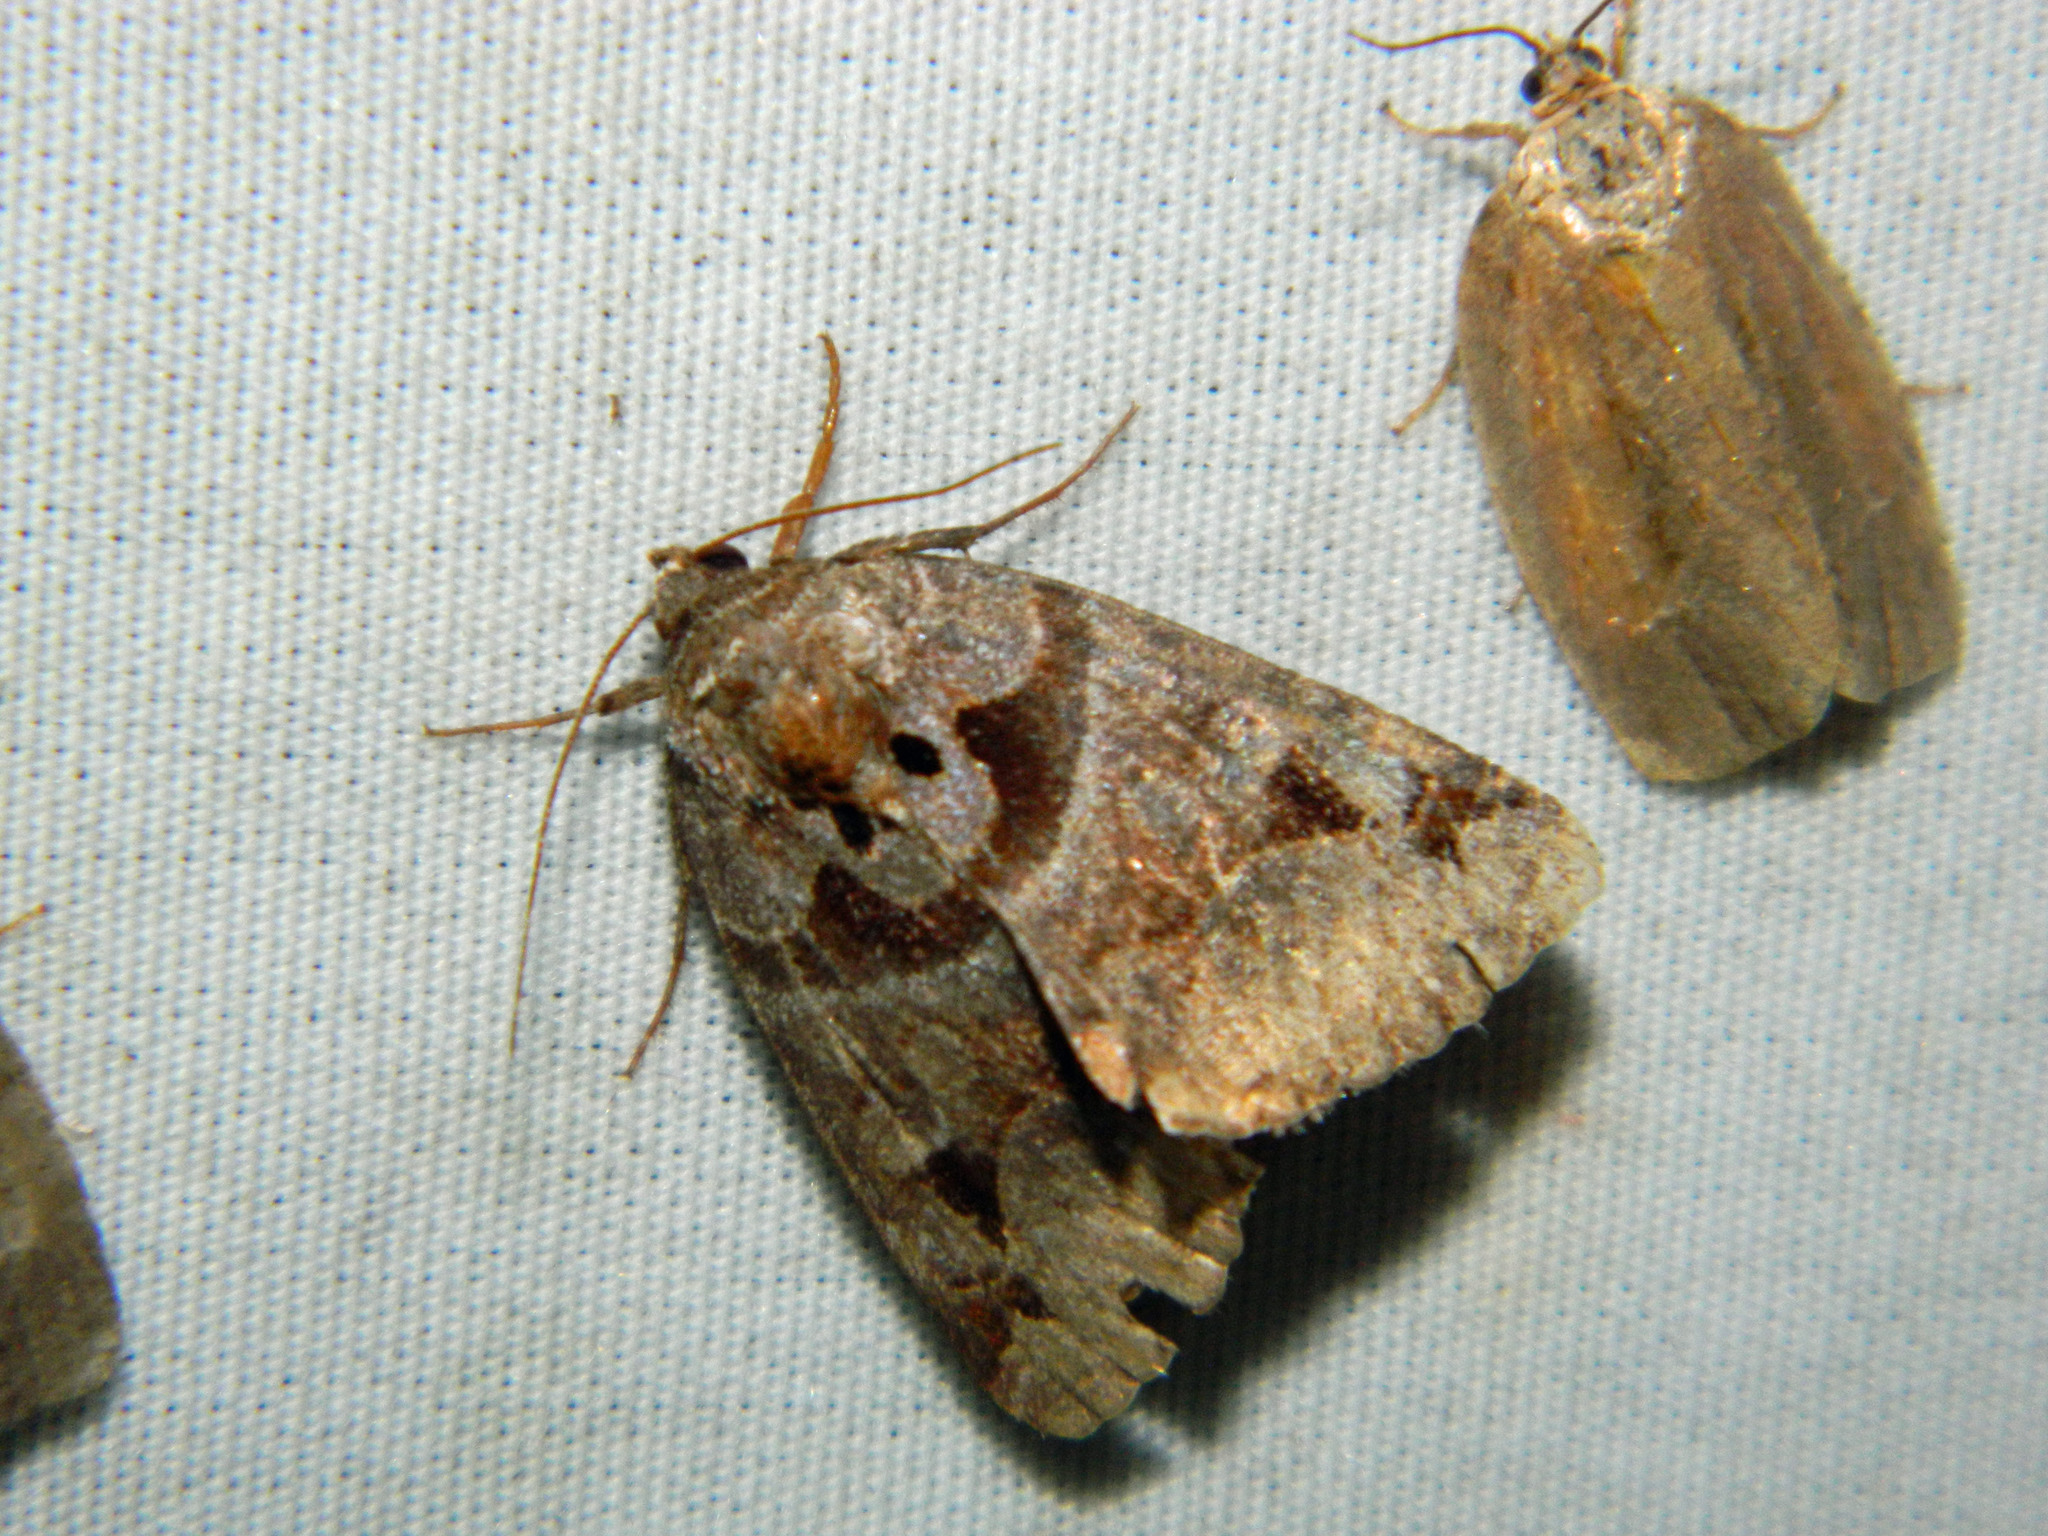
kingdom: Animalia
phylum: Arthropoda
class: Insecta
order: Lepidoptera
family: Erebidae
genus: Euclidia
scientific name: Euclidia cuspidea
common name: Toothed somberwing
